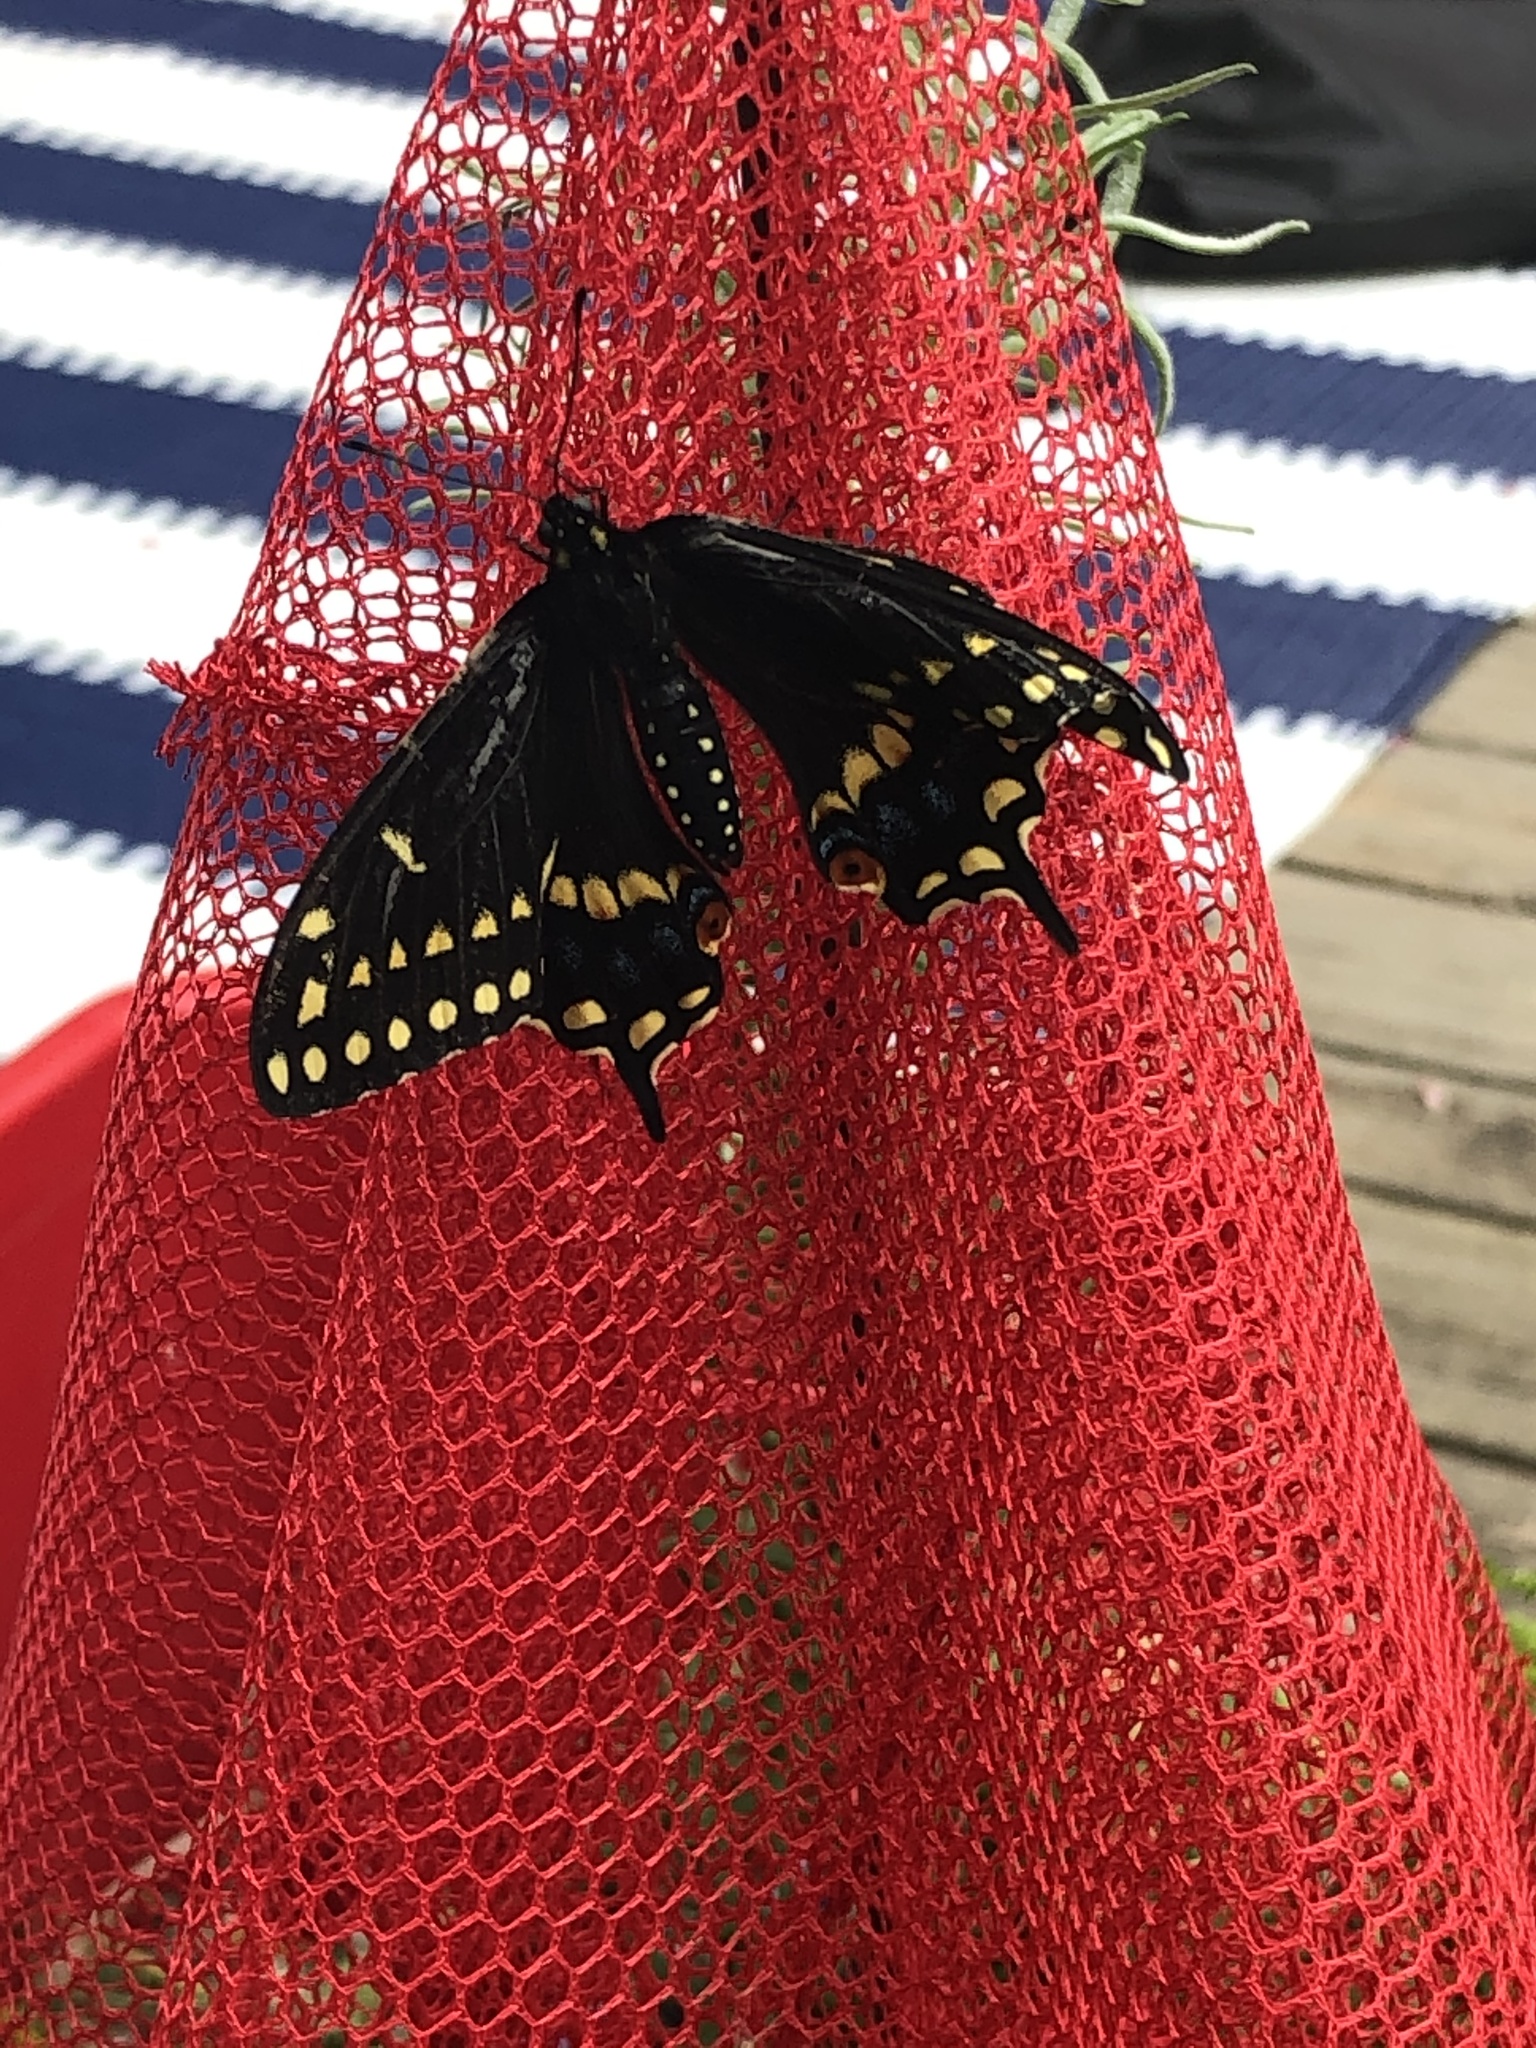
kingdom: Animalia
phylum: Arthropoda
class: Insecta
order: Lepidoptera
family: Papilionidae
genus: Papilio
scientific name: Papilio polyxenes
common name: Black swallowtail
